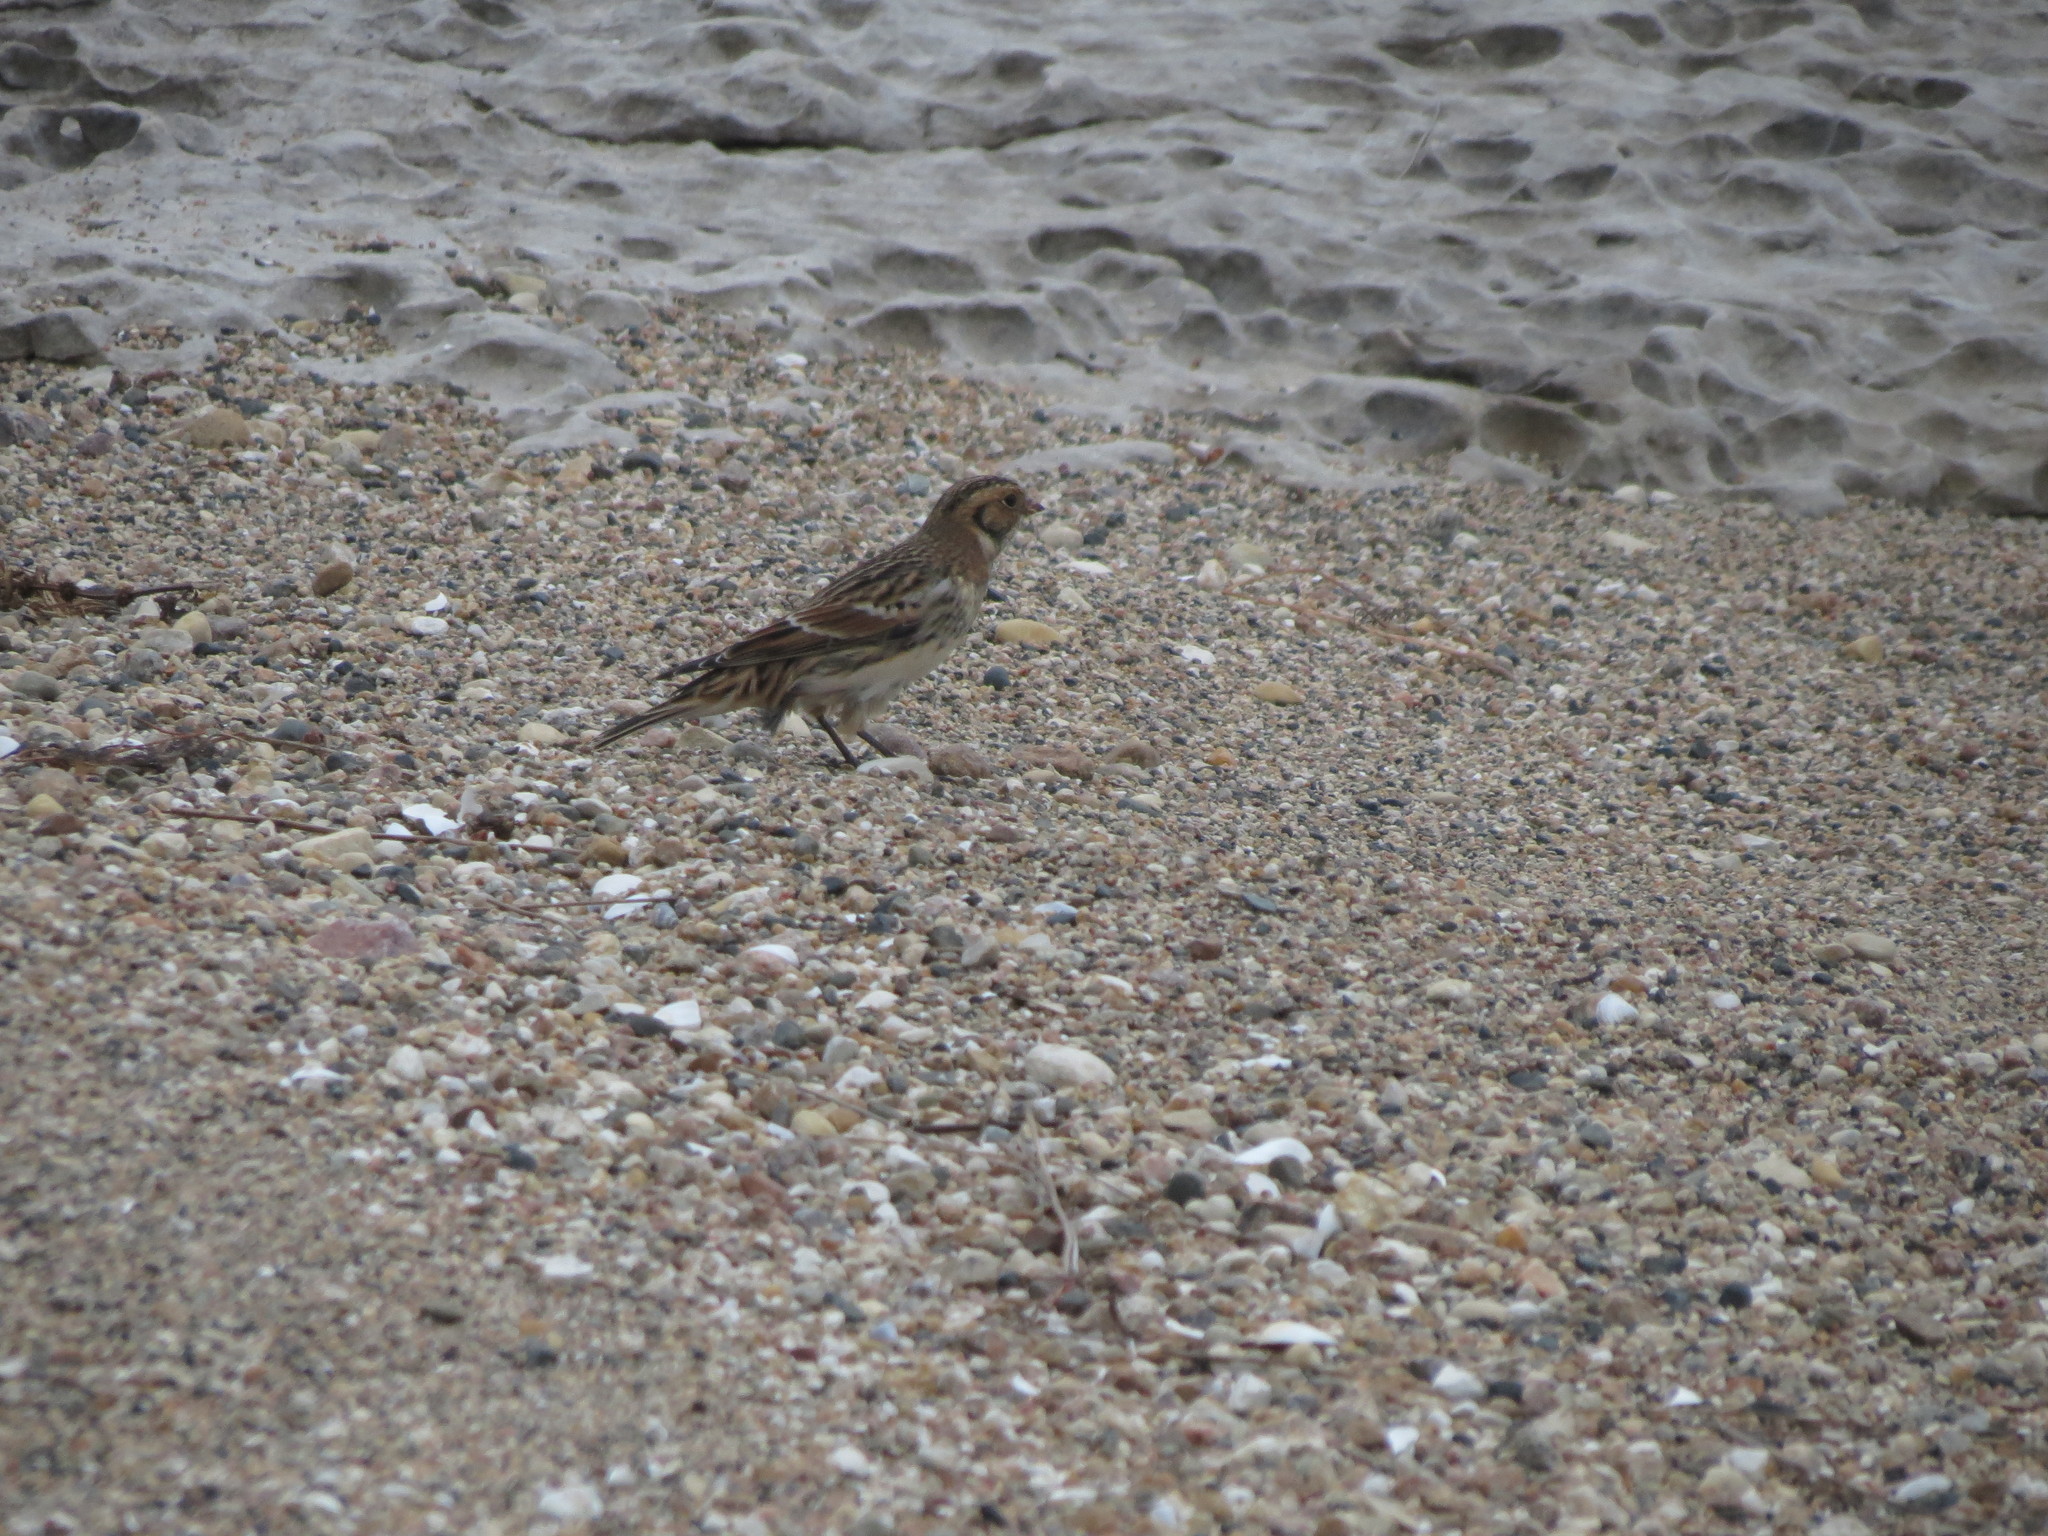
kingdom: Animalia
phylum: Chordata
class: Aves
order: Passeriformes
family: Calcariidae
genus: Calcarius
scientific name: Calcarius lapponicus
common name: Lapland longspur
